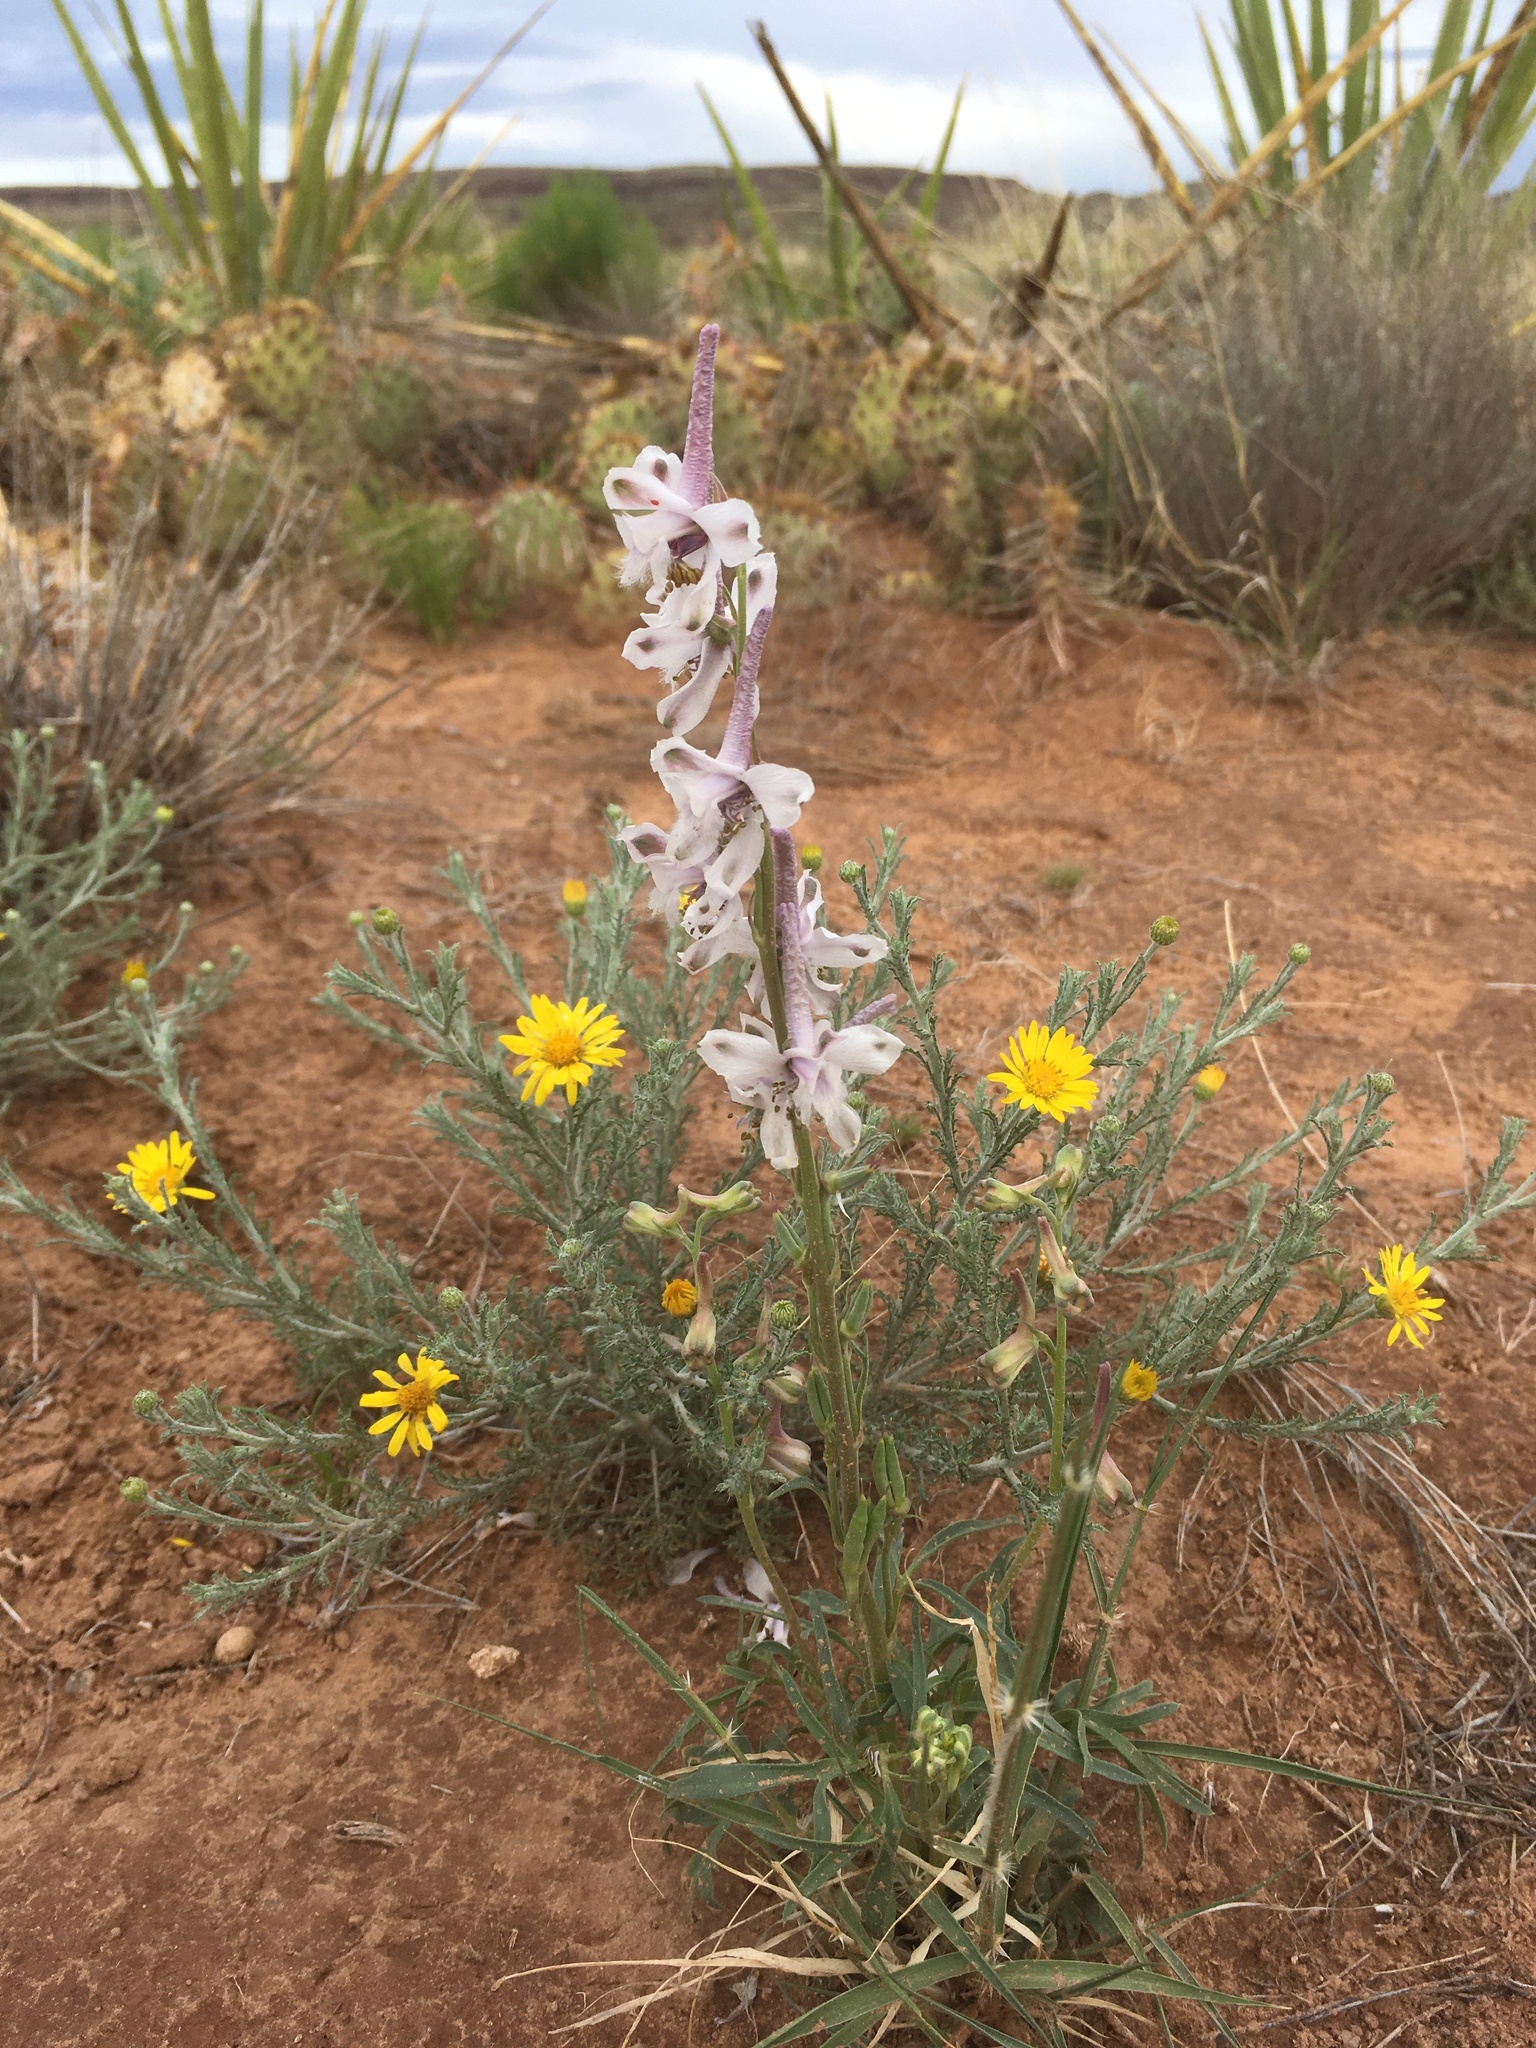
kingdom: Plantae
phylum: Tracheophyta
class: Magnoliopsida
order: Ranunculales
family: Ranunculaceae
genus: Delphinium
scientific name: Delphinium wootonii
